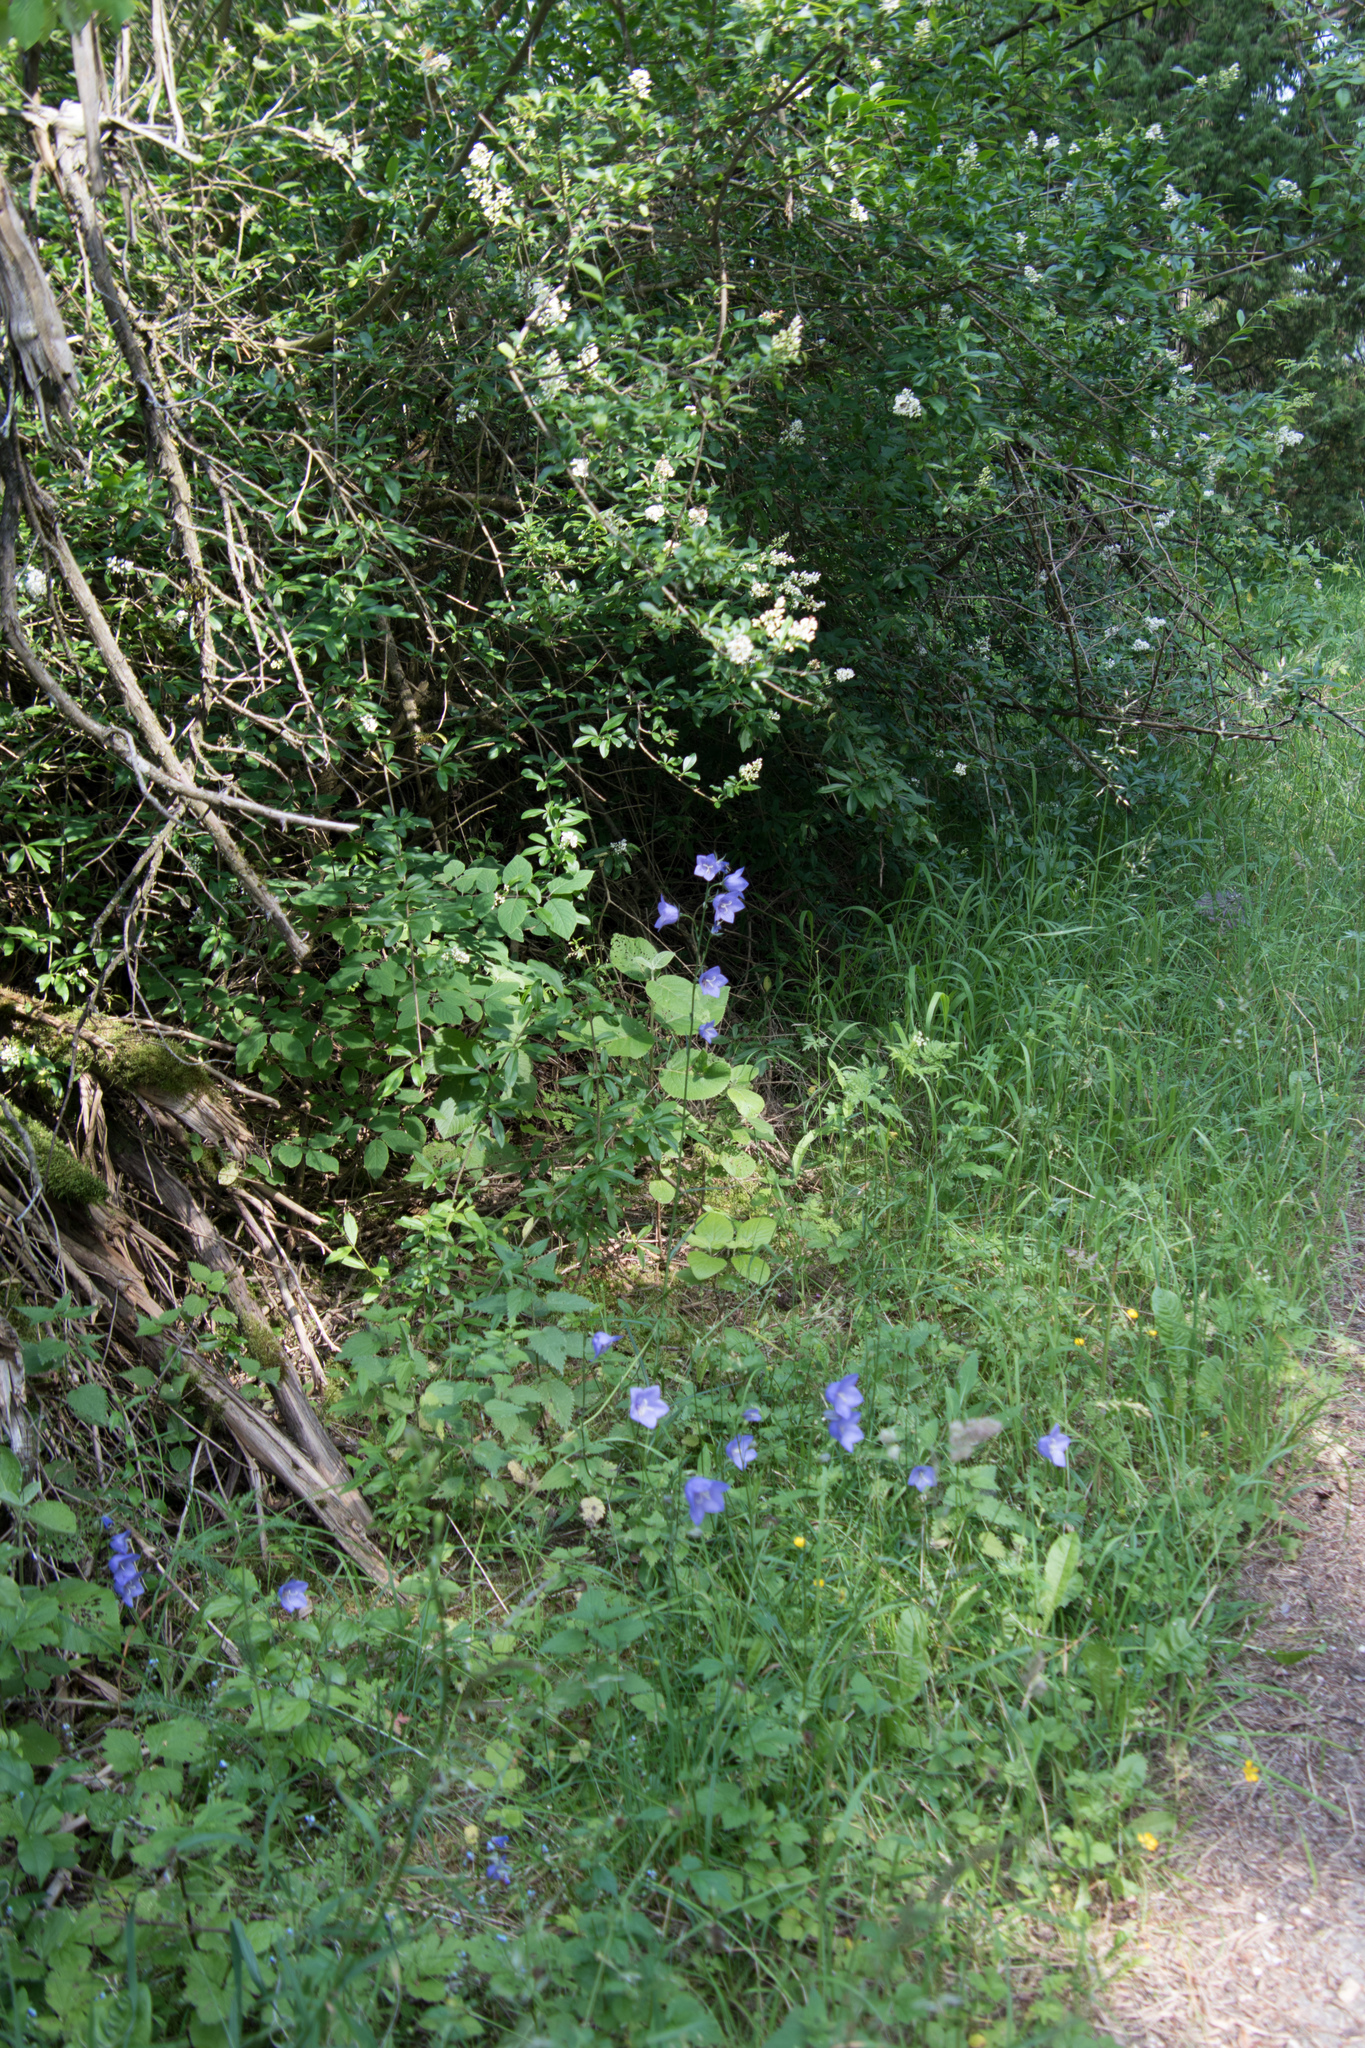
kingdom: Plantae
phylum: Tracheophyta
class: Magnoliopsida
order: Asterales
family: Campanulaceae
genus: Campanula
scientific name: Campanula persicifolia
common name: Peach-leaved bellflower
